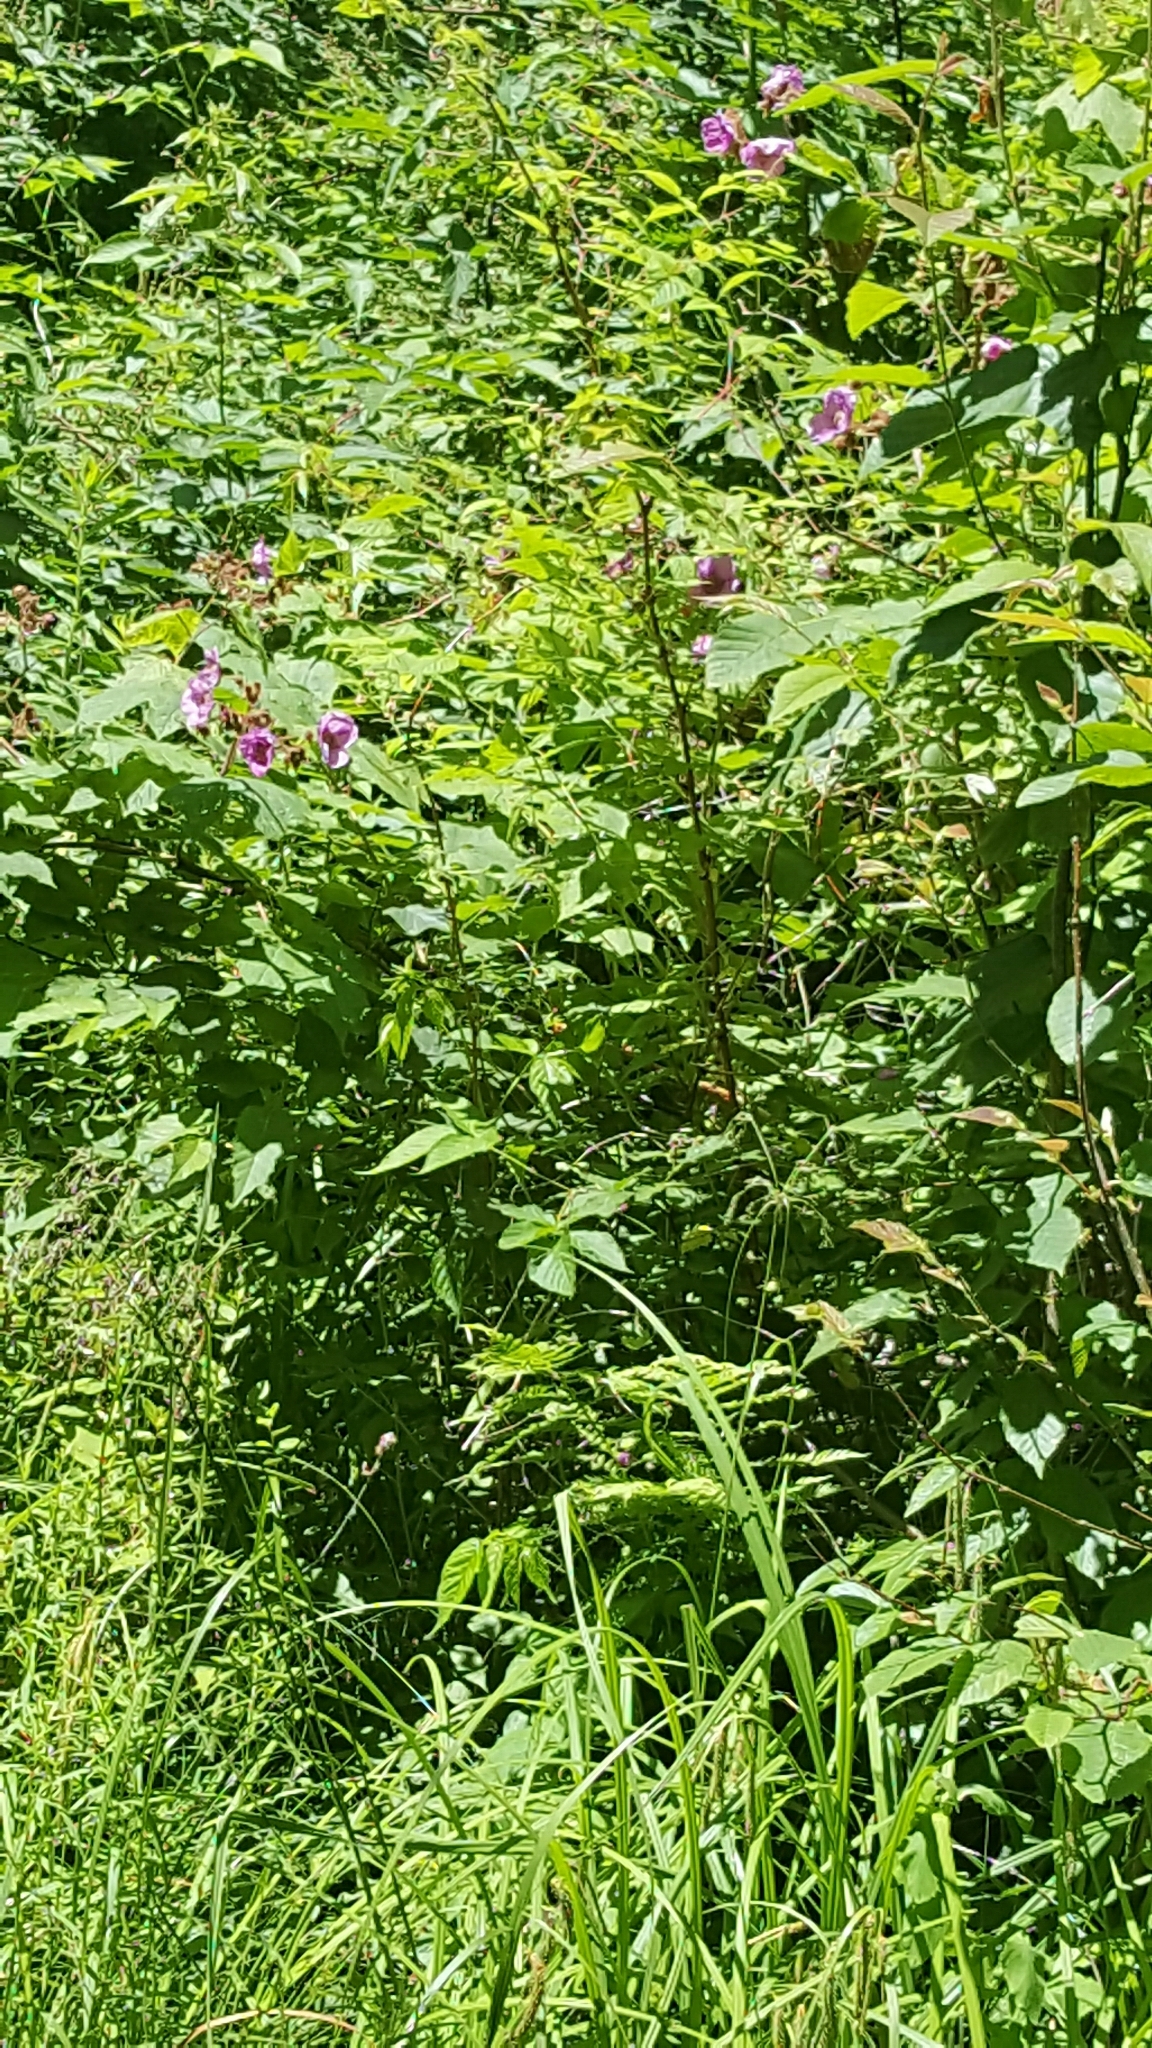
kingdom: Plantae
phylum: Tracheophyta
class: Magnoliopsida
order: Rosales
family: Rosaceae
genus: Rubus
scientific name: Rubus odoratus
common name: Purple-flowered raspberry
